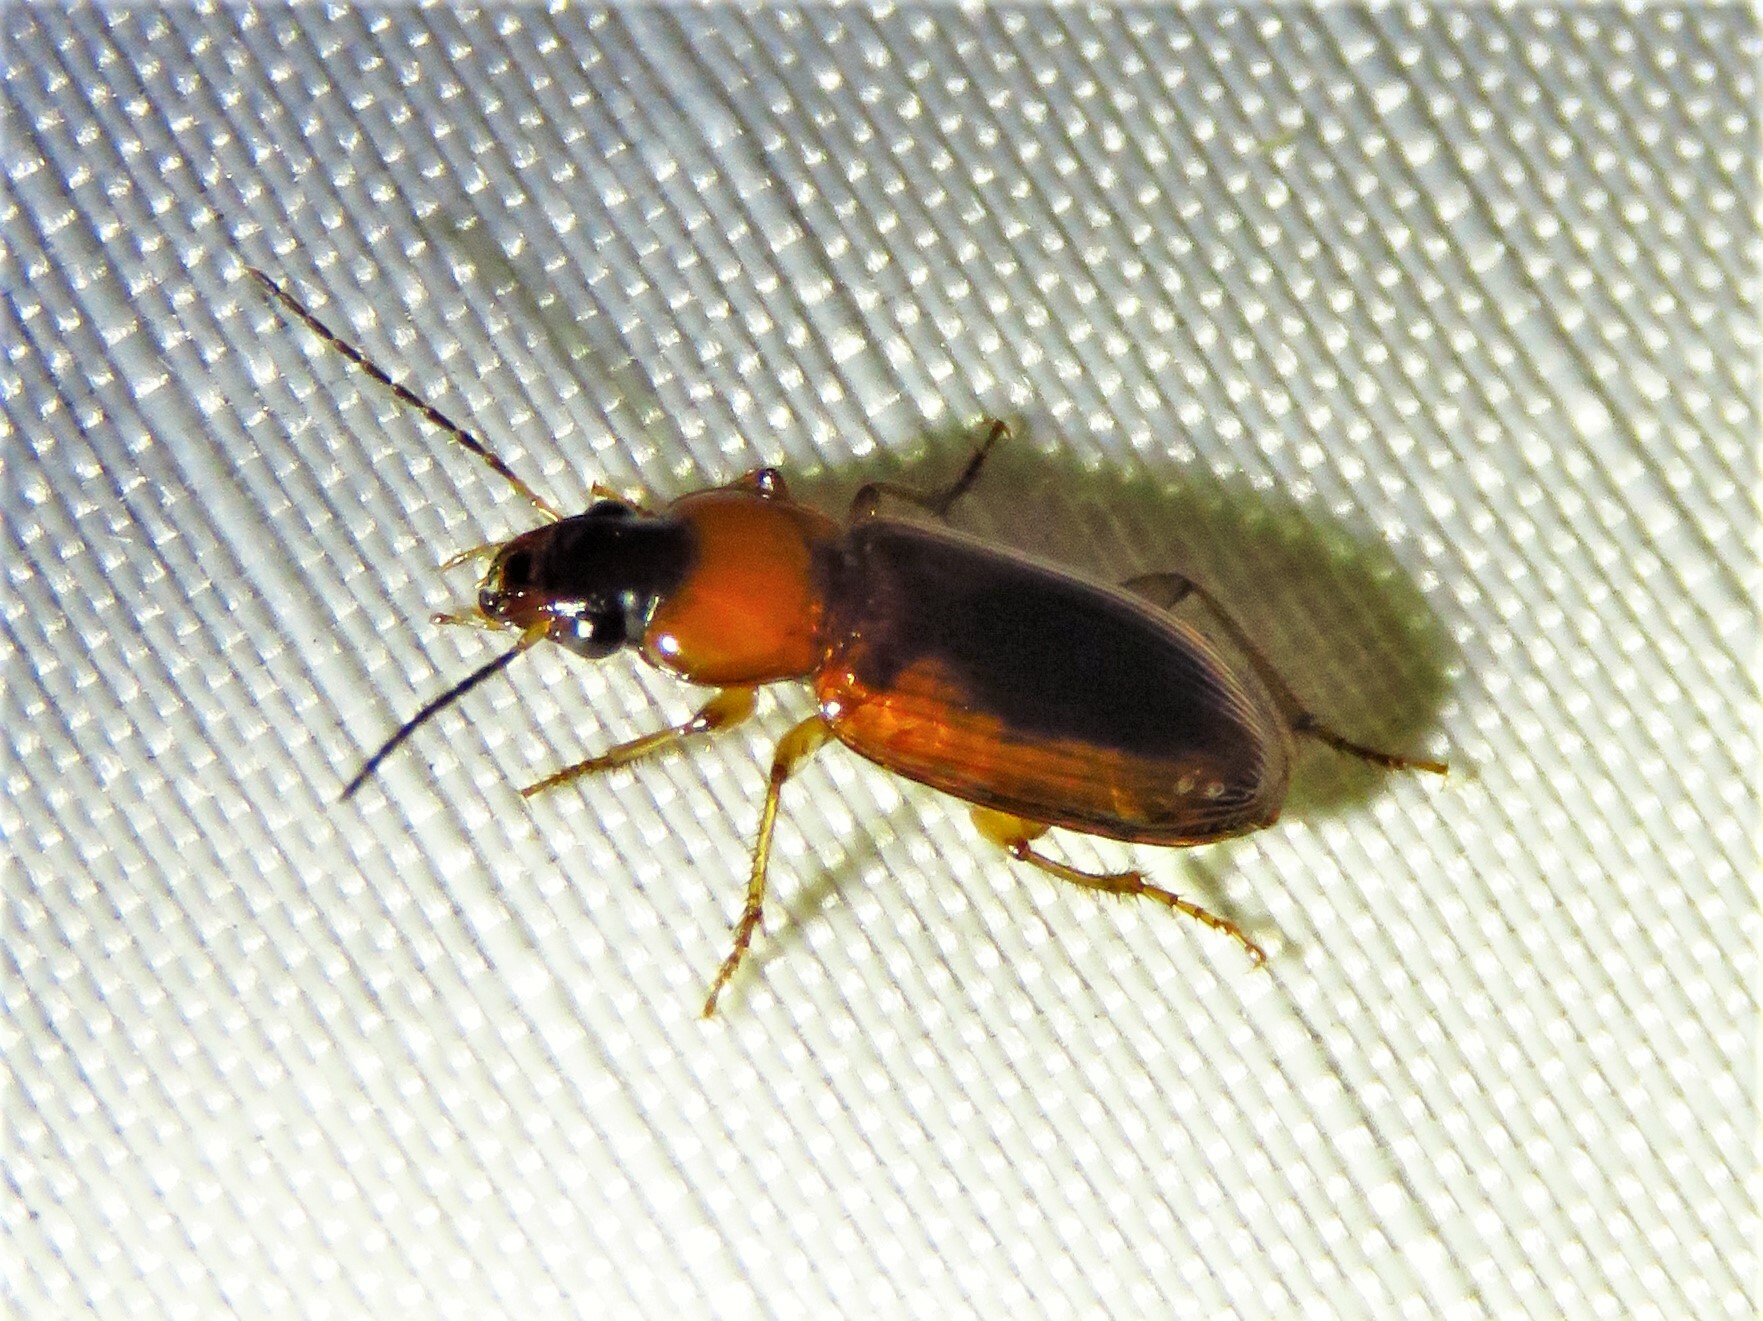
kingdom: Animalia
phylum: Arthropoda
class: Insecta
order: Coleoptera
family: Carabidae
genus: Stenolophus
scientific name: Stenolophus dissimilis
